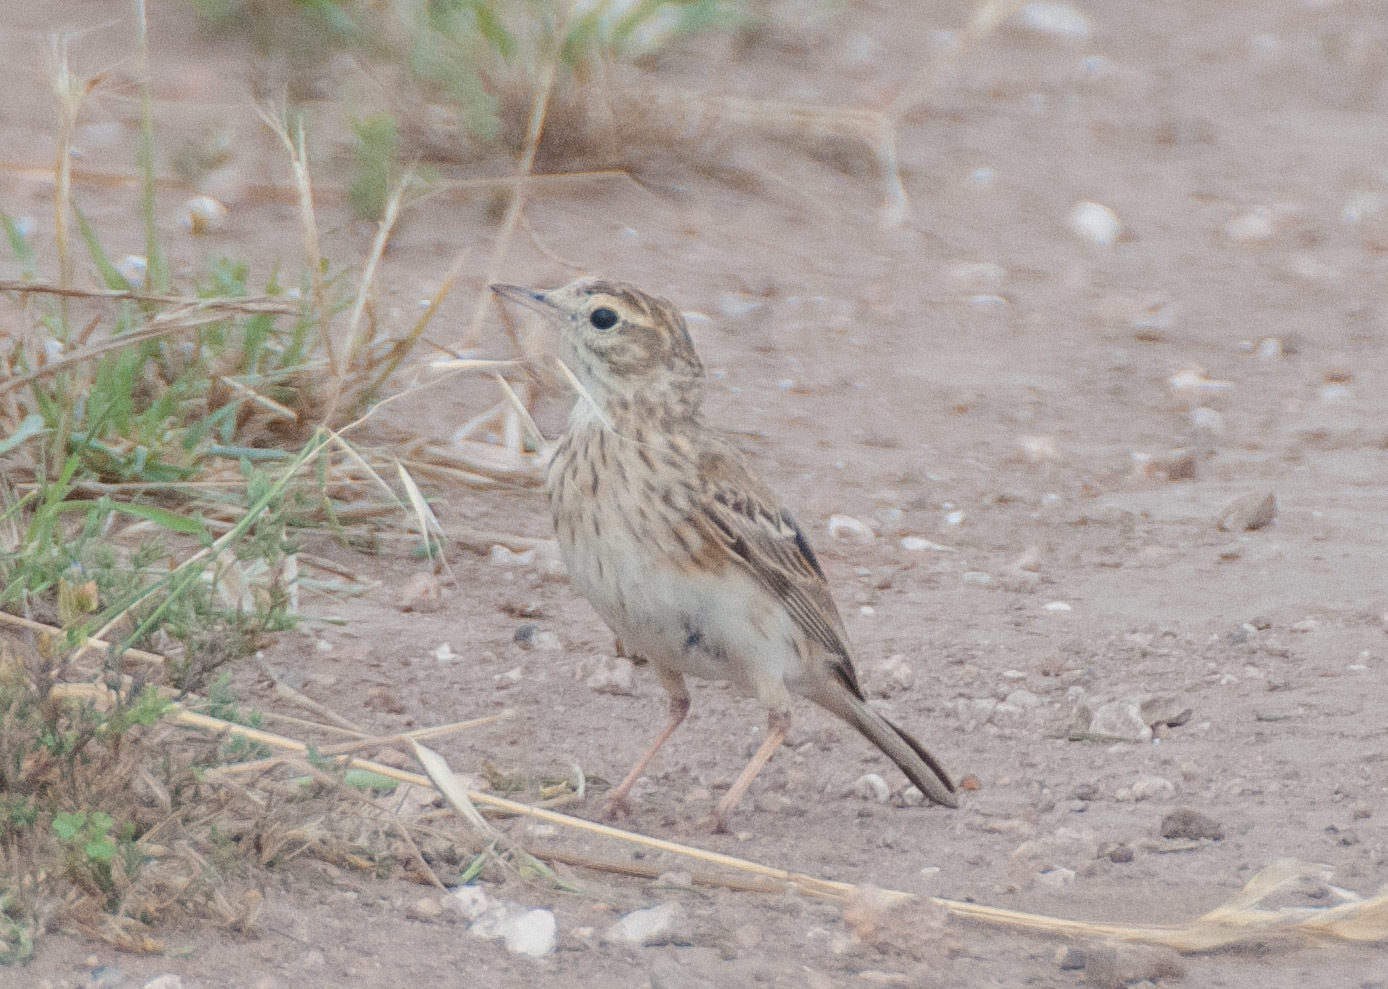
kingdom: Animalia
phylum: Chordata
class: Aves
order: Passeriformes
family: Motacillidae
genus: Anthus
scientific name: Anthus australis
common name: Australian pipit
